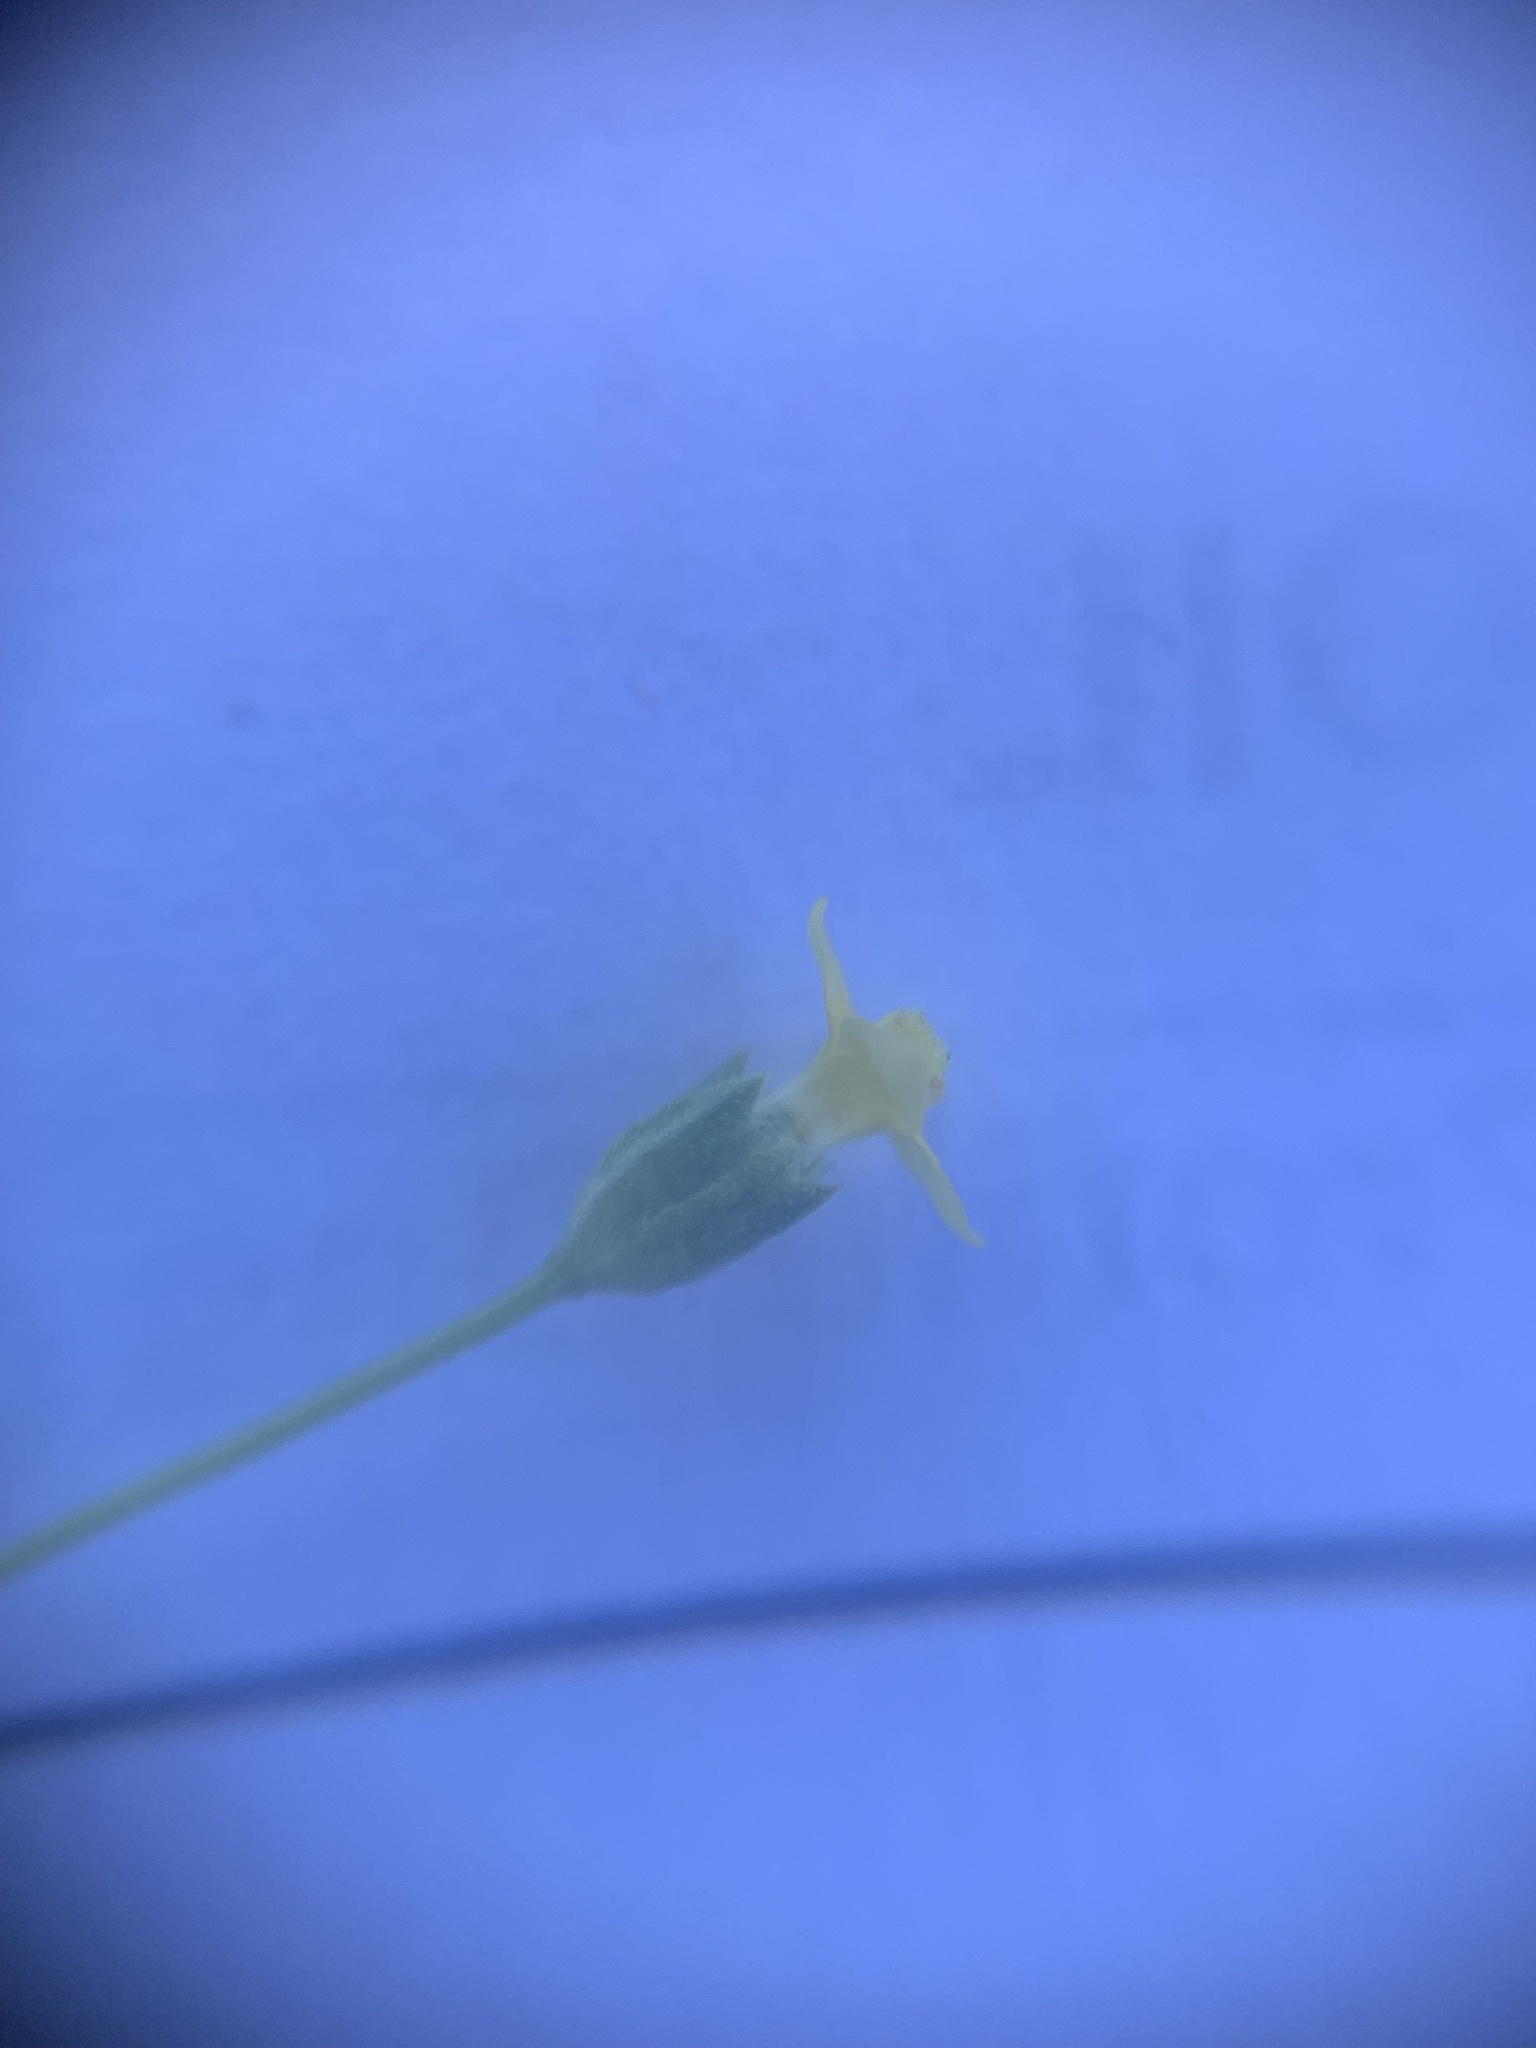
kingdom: Plantae
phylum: Tracheophyta
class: Magnoliopsida
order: Gentianales
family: Gentianaceae
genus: Microcala
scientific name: Microcala quadrangularis
